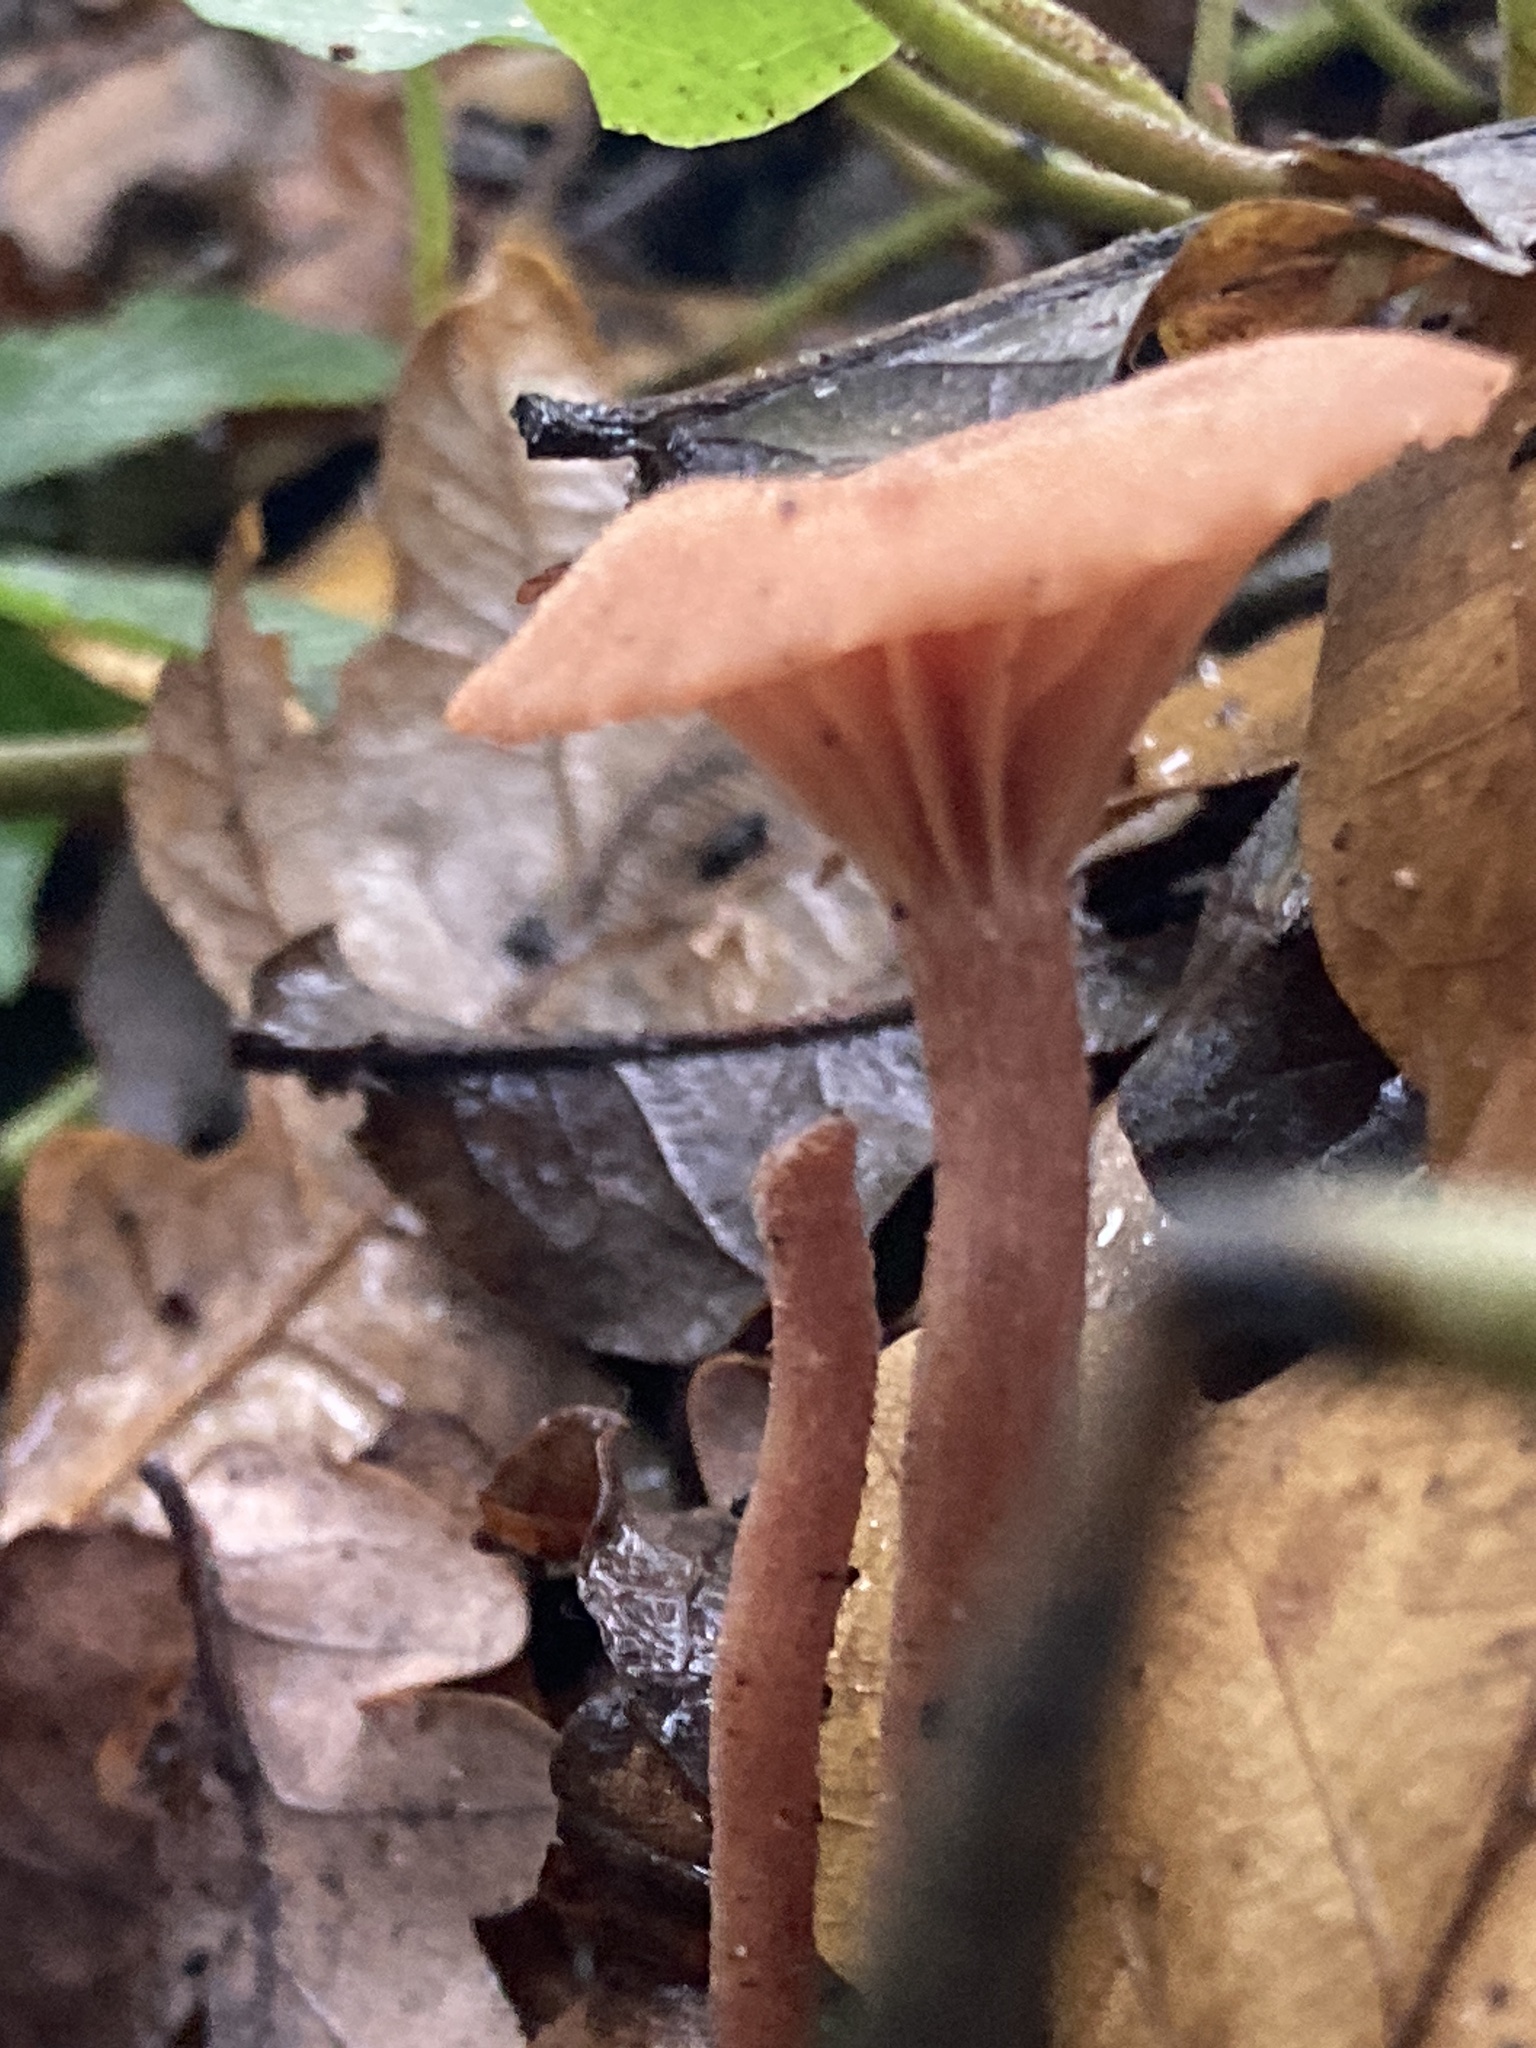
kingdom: Fungi
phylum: Basidiomycota
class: Agaricomycetes
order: Agaricales
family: Hydnangiaceae
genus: Laccaria
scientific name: Laccaria laccata
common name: Deceiver
